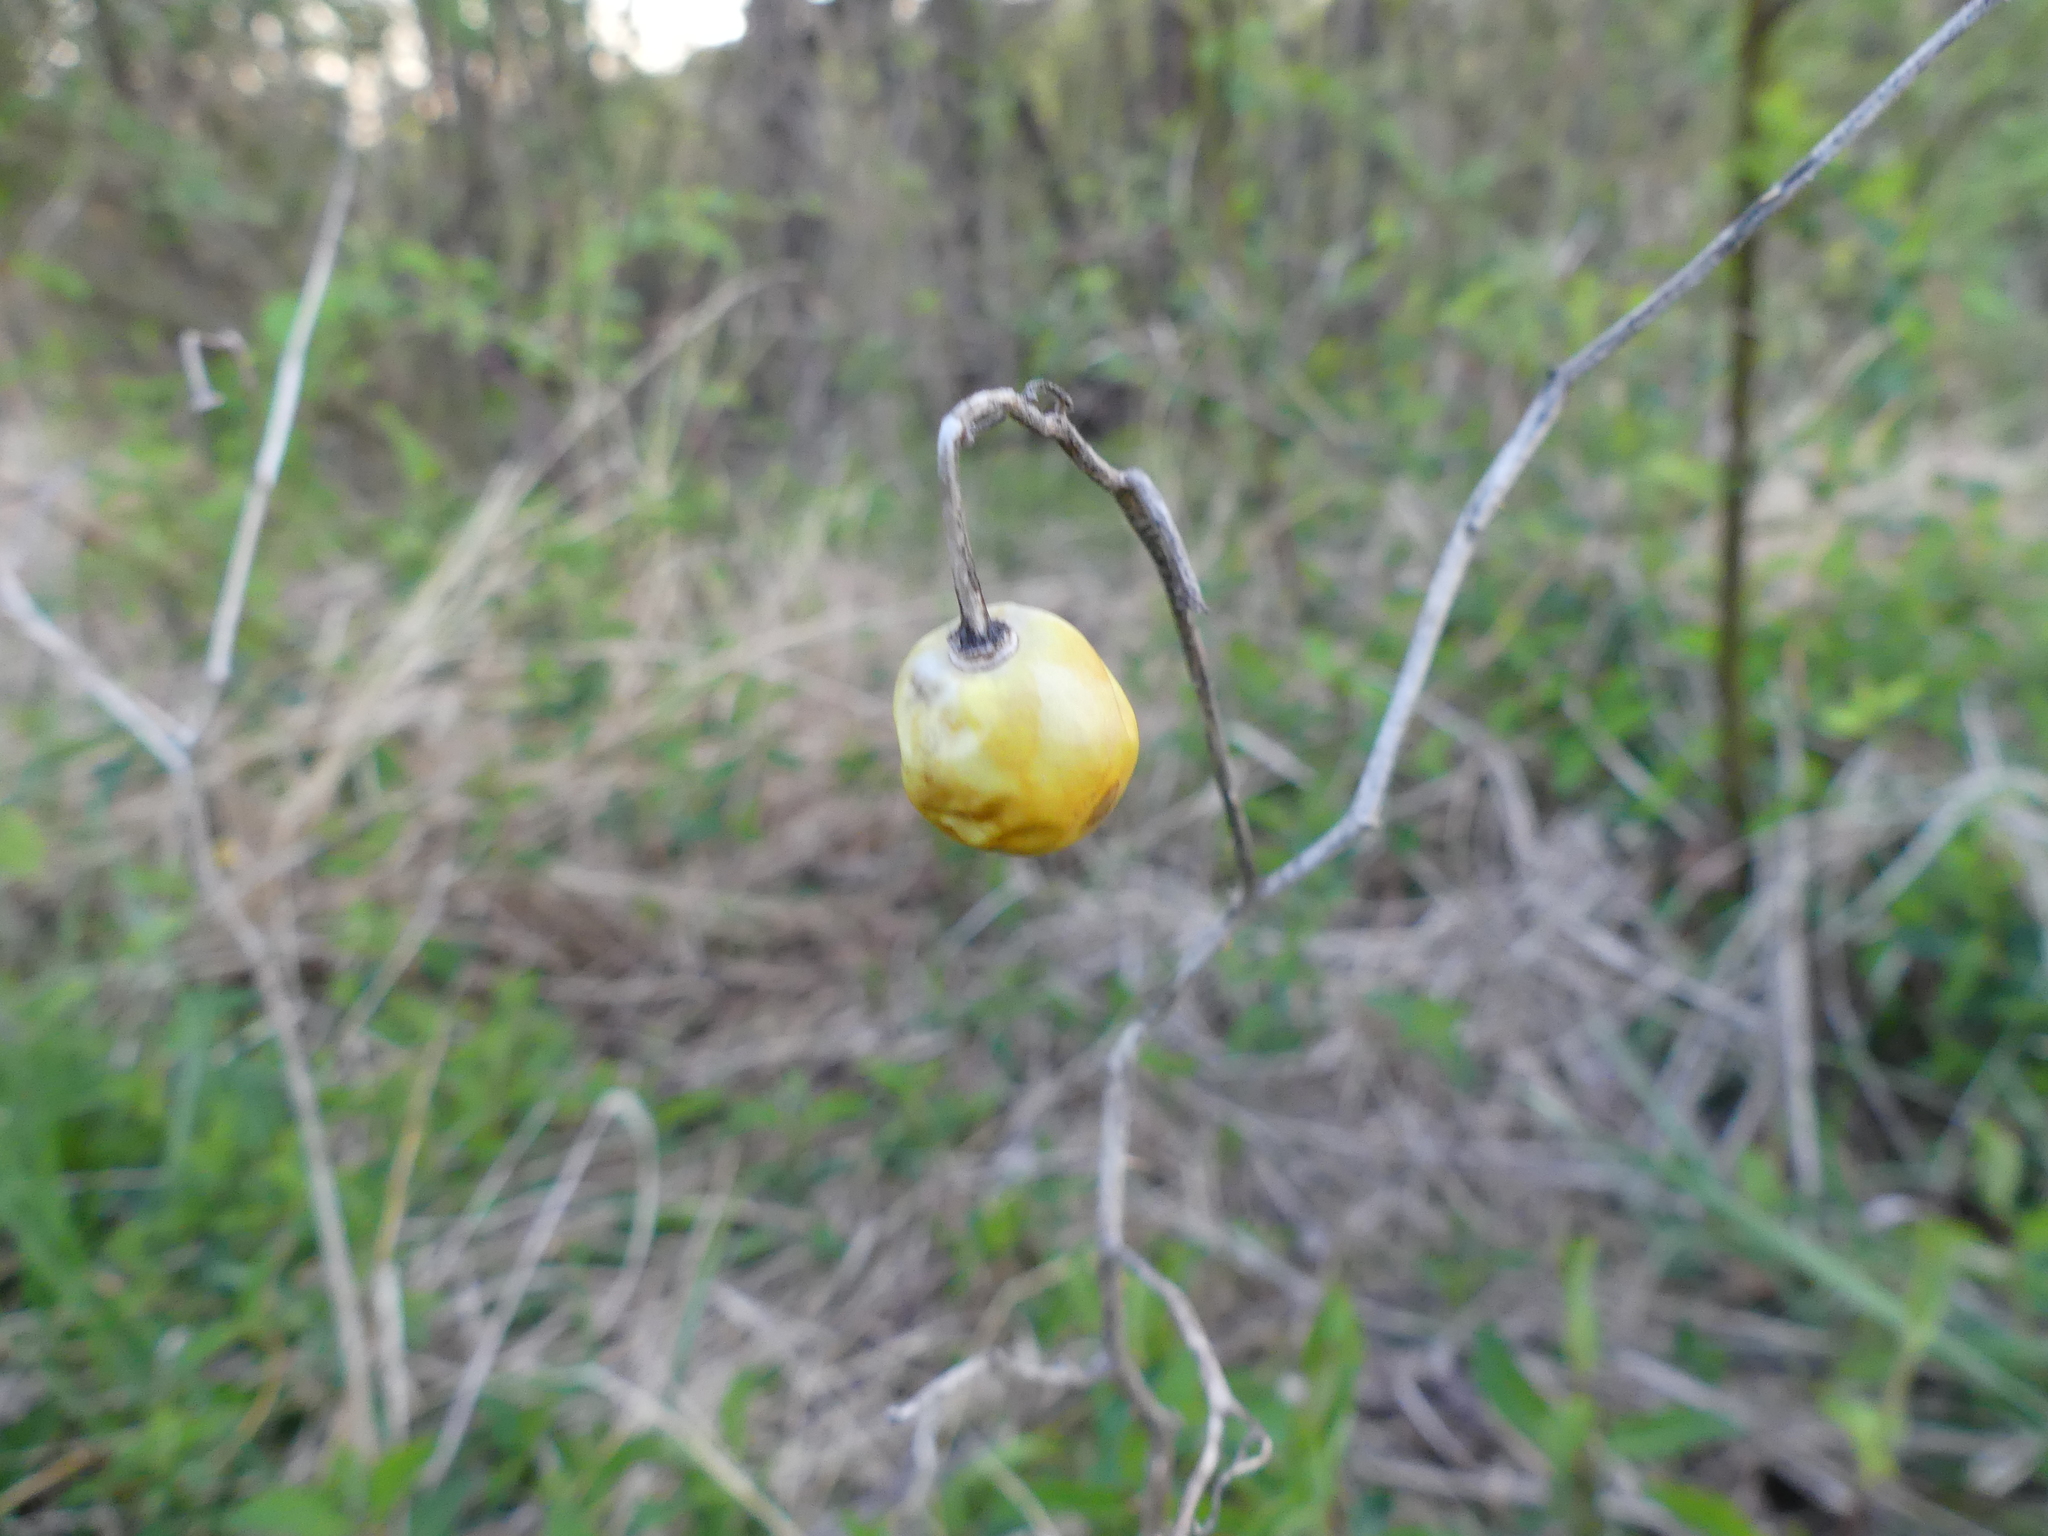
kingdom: Plantae
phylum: Tracheophyta
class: Magnoliopsida
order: Solanales
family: Solanaceae
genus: Solanum
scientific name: Solanum carolinense
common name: Horse-nettle
